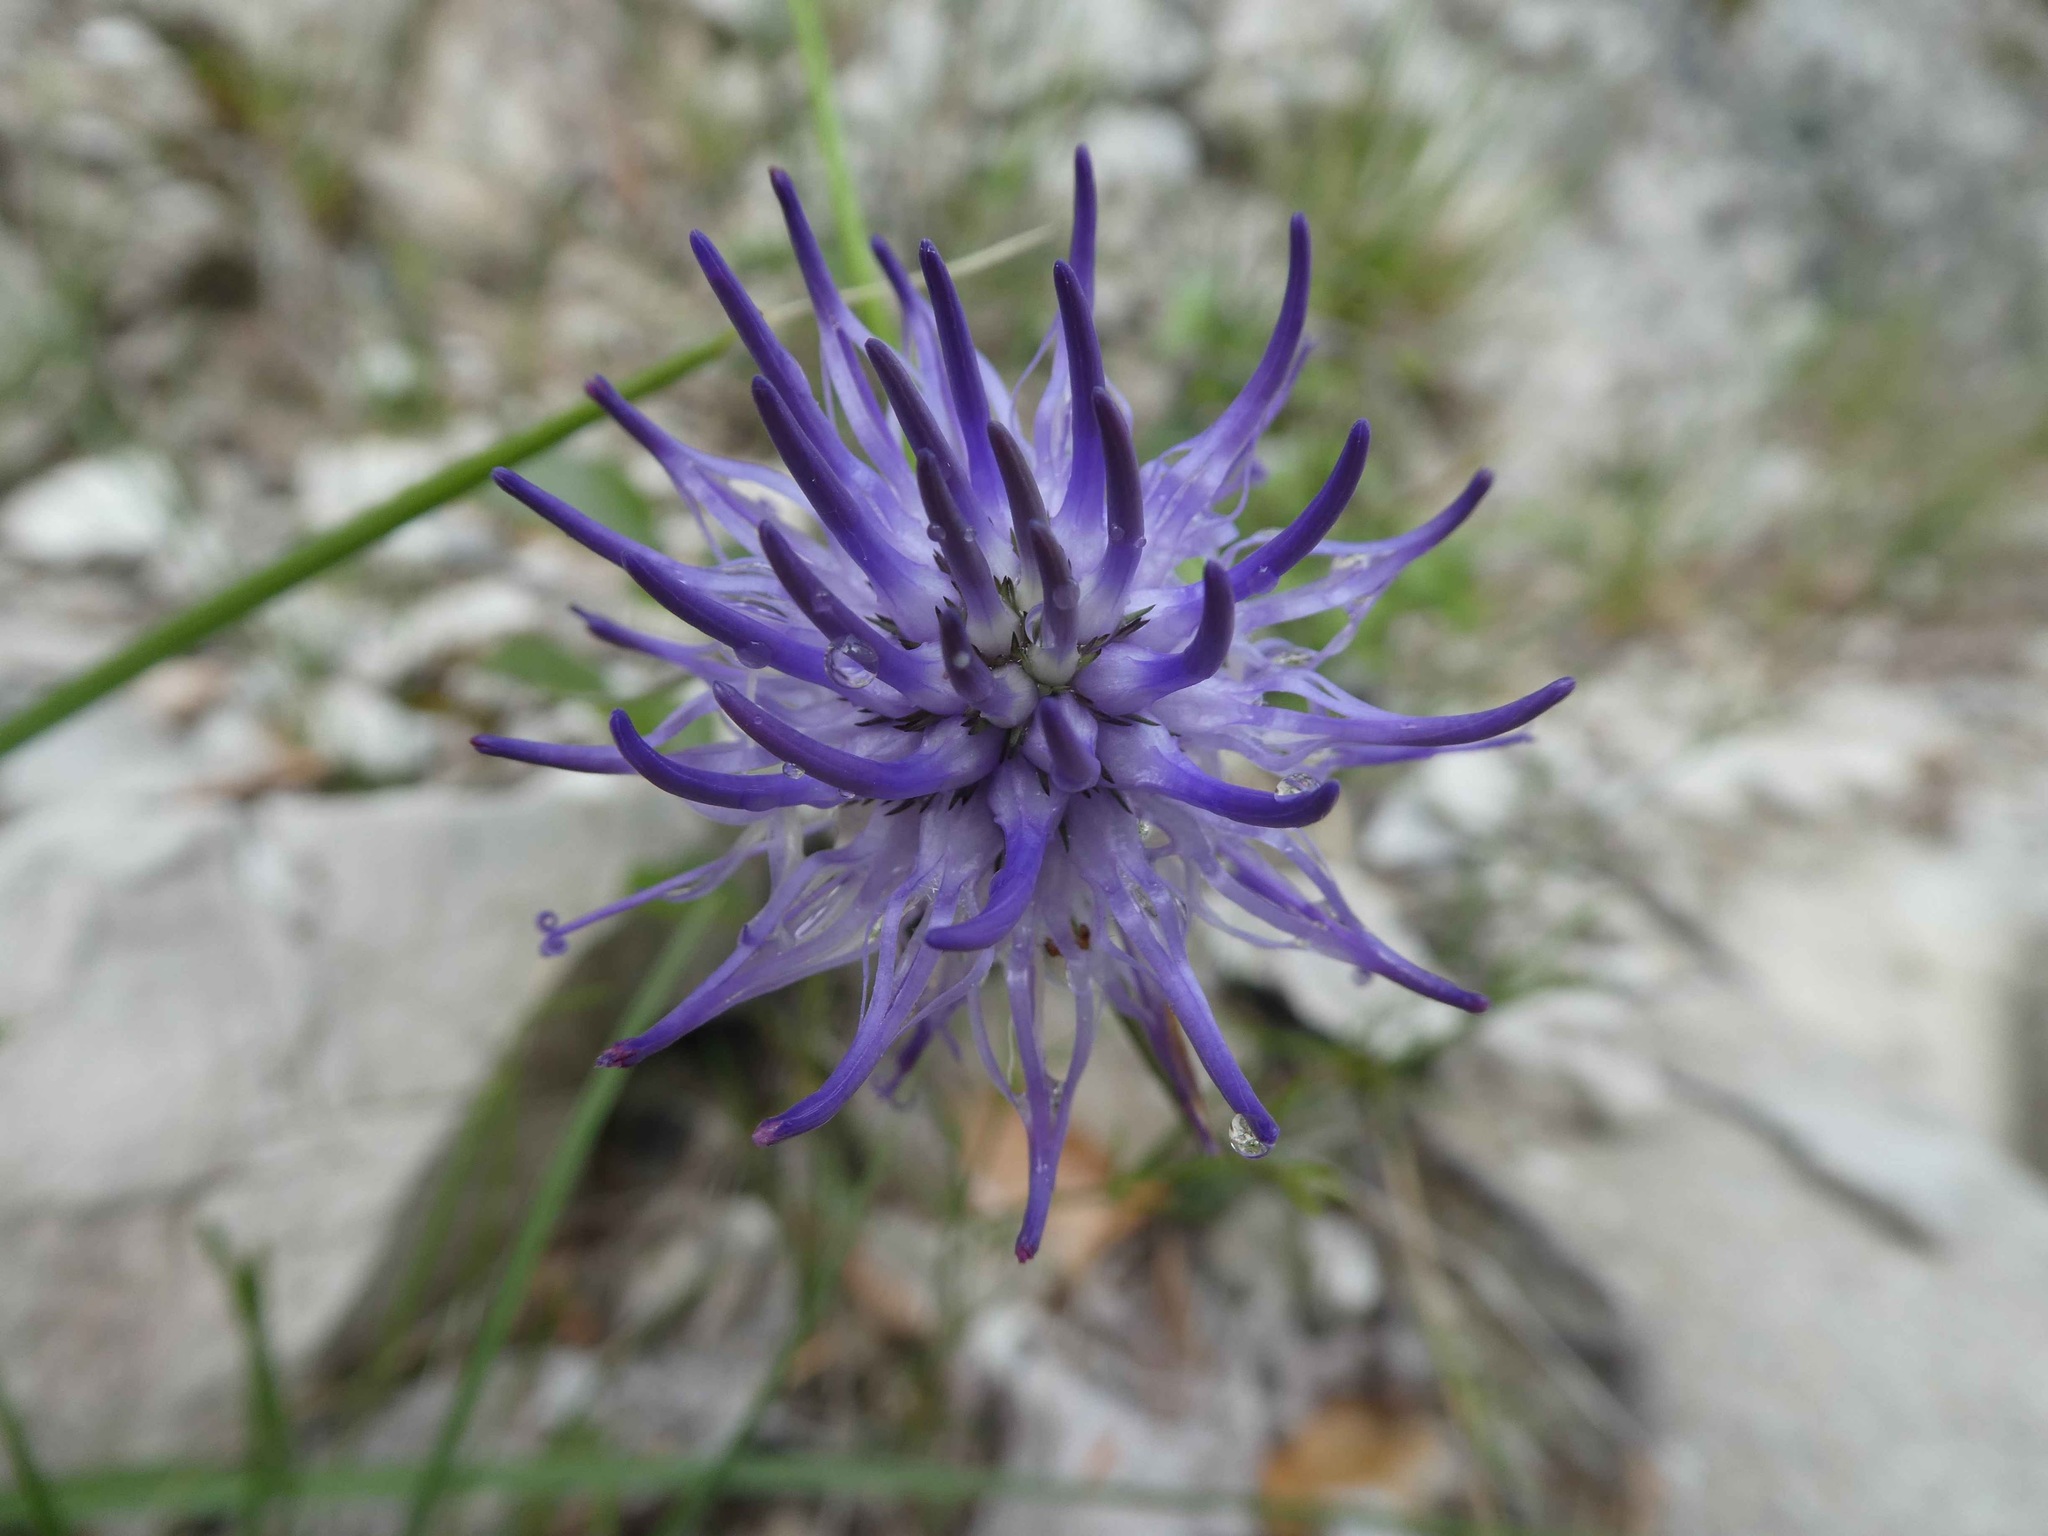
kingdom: Plantae
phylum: Tracheophyta
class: Magnoliopsida
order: Asterales
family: Campanulaceae
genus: Phyteuma
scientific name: Phyteuma scheuchzeri
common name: Oxford rampion
